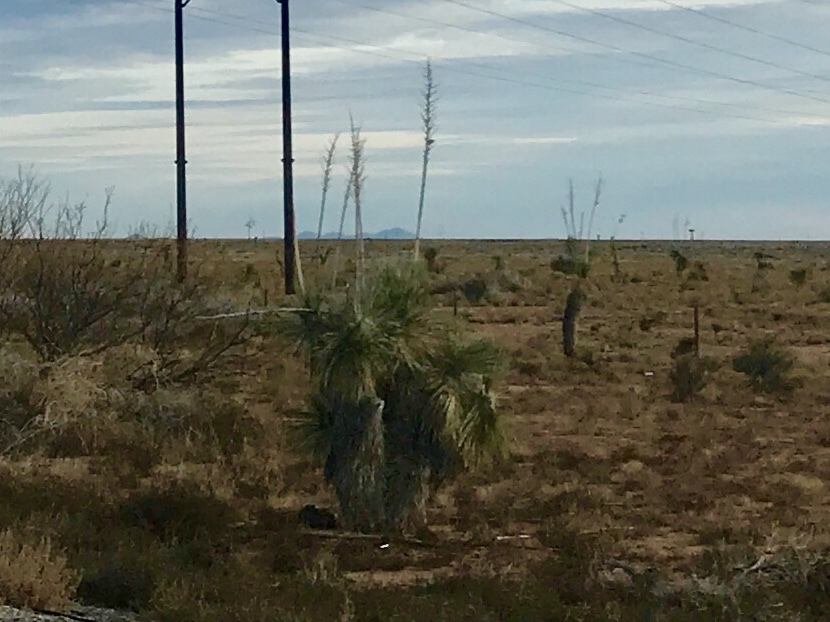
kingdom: Plantae
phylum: Tracheophyta
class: Liliopsida
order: Asparagales
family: Asparagaceae
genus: Yucca
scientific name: Yucca elata
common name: Palmella
